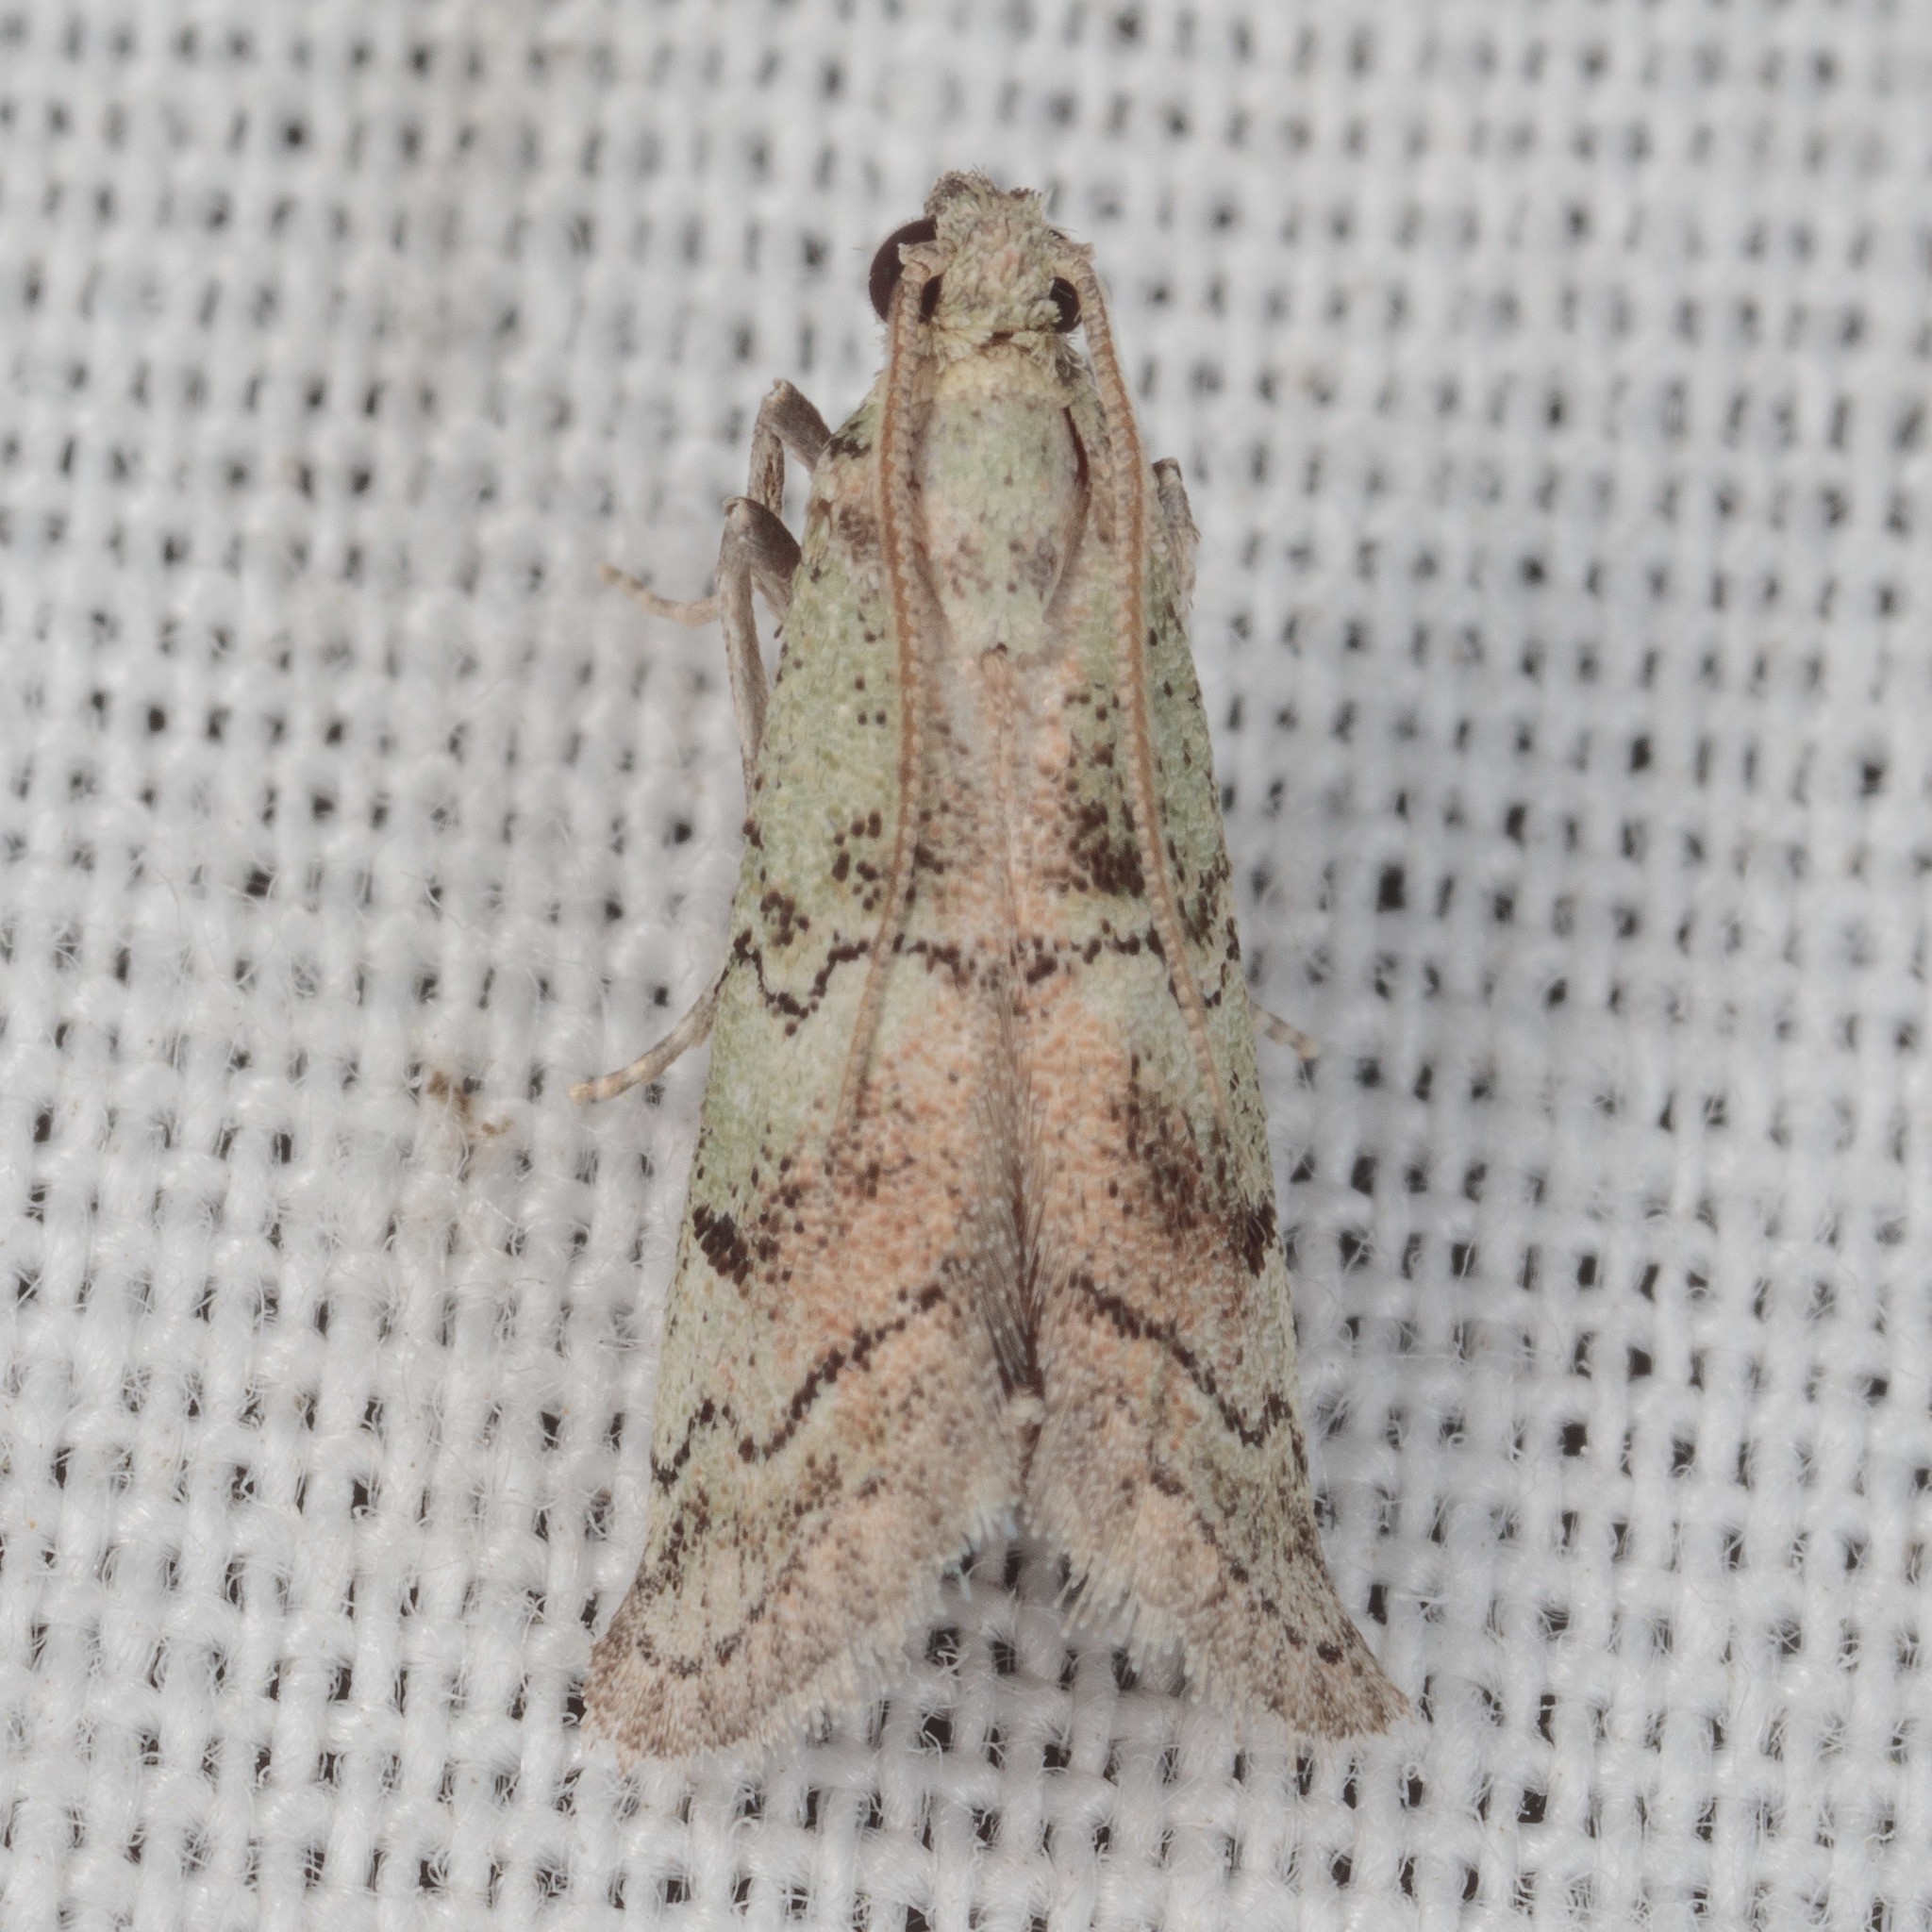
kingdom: Animalia
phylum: Arthropoda
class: Insecta
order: Lepidoptera
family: Pyralidae
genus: Cacotherapia
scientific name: Cacotherapia flexilinealis
